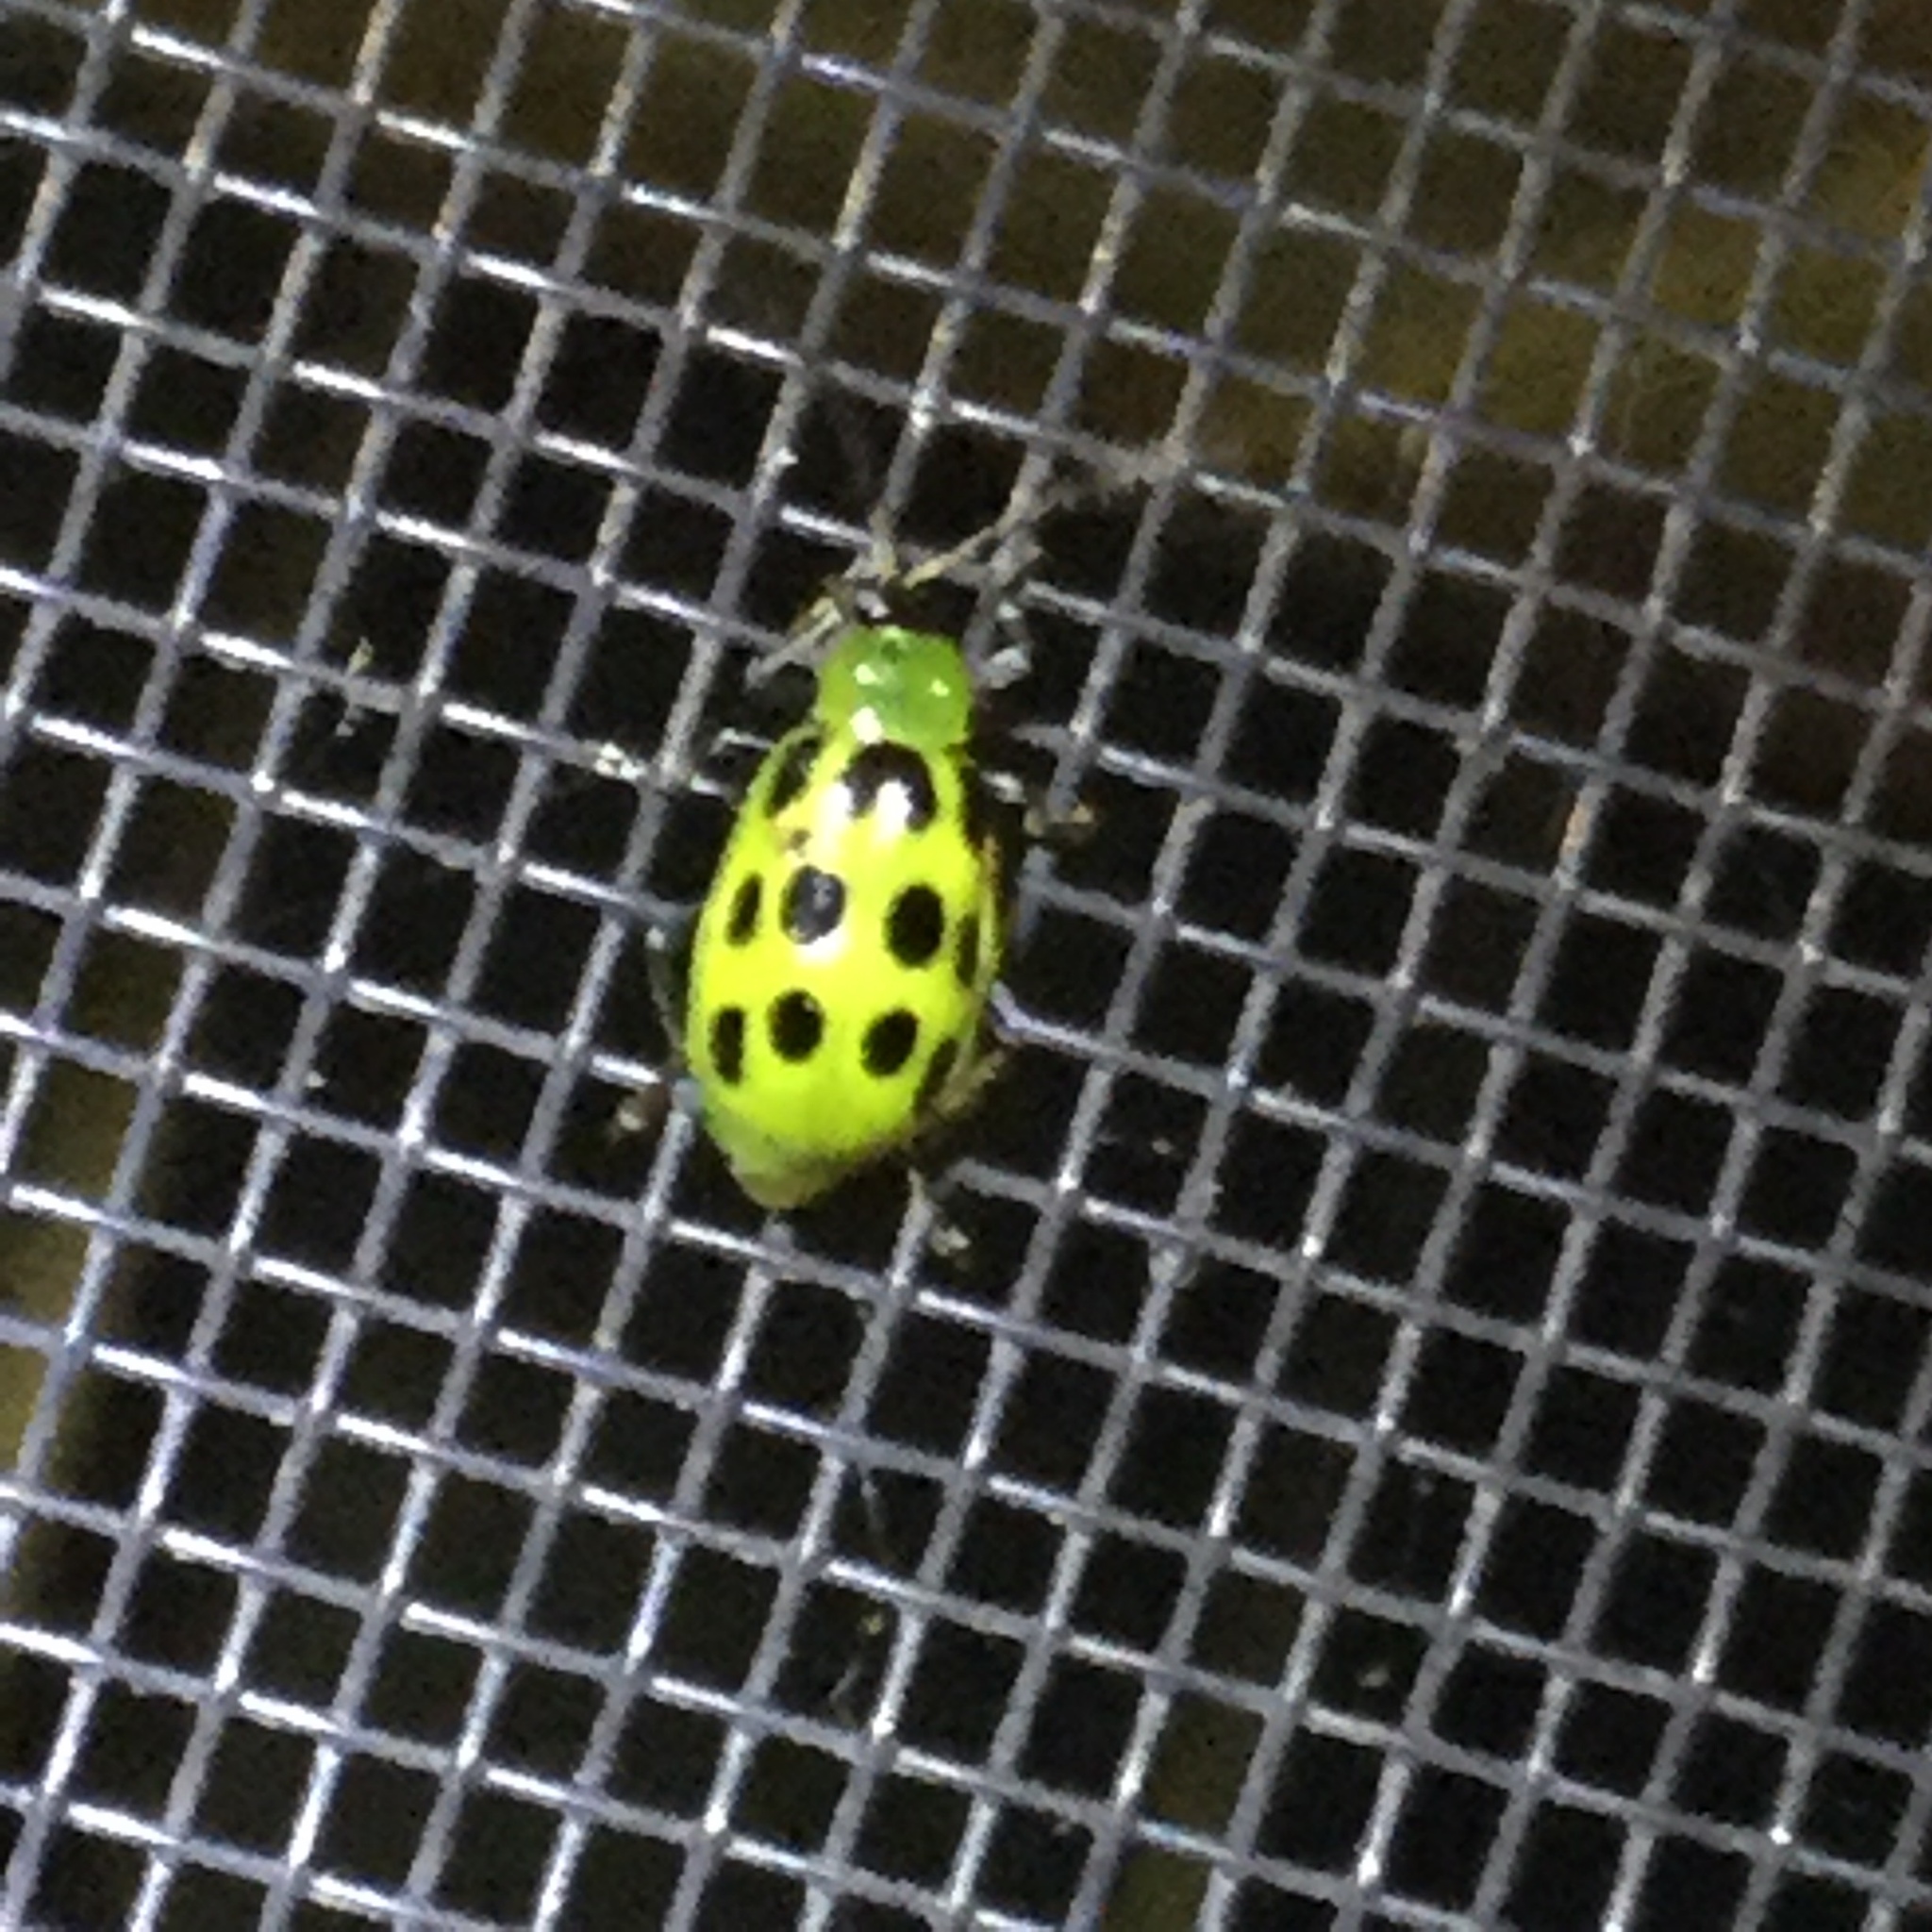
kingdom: Animalia
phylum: Arthropoda
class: Insecta
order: Coleoptera
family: Chrysomelidae
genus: Diabrotica
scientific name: Diabrotica undecimpunctata
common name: Spotted cucumber beetle
